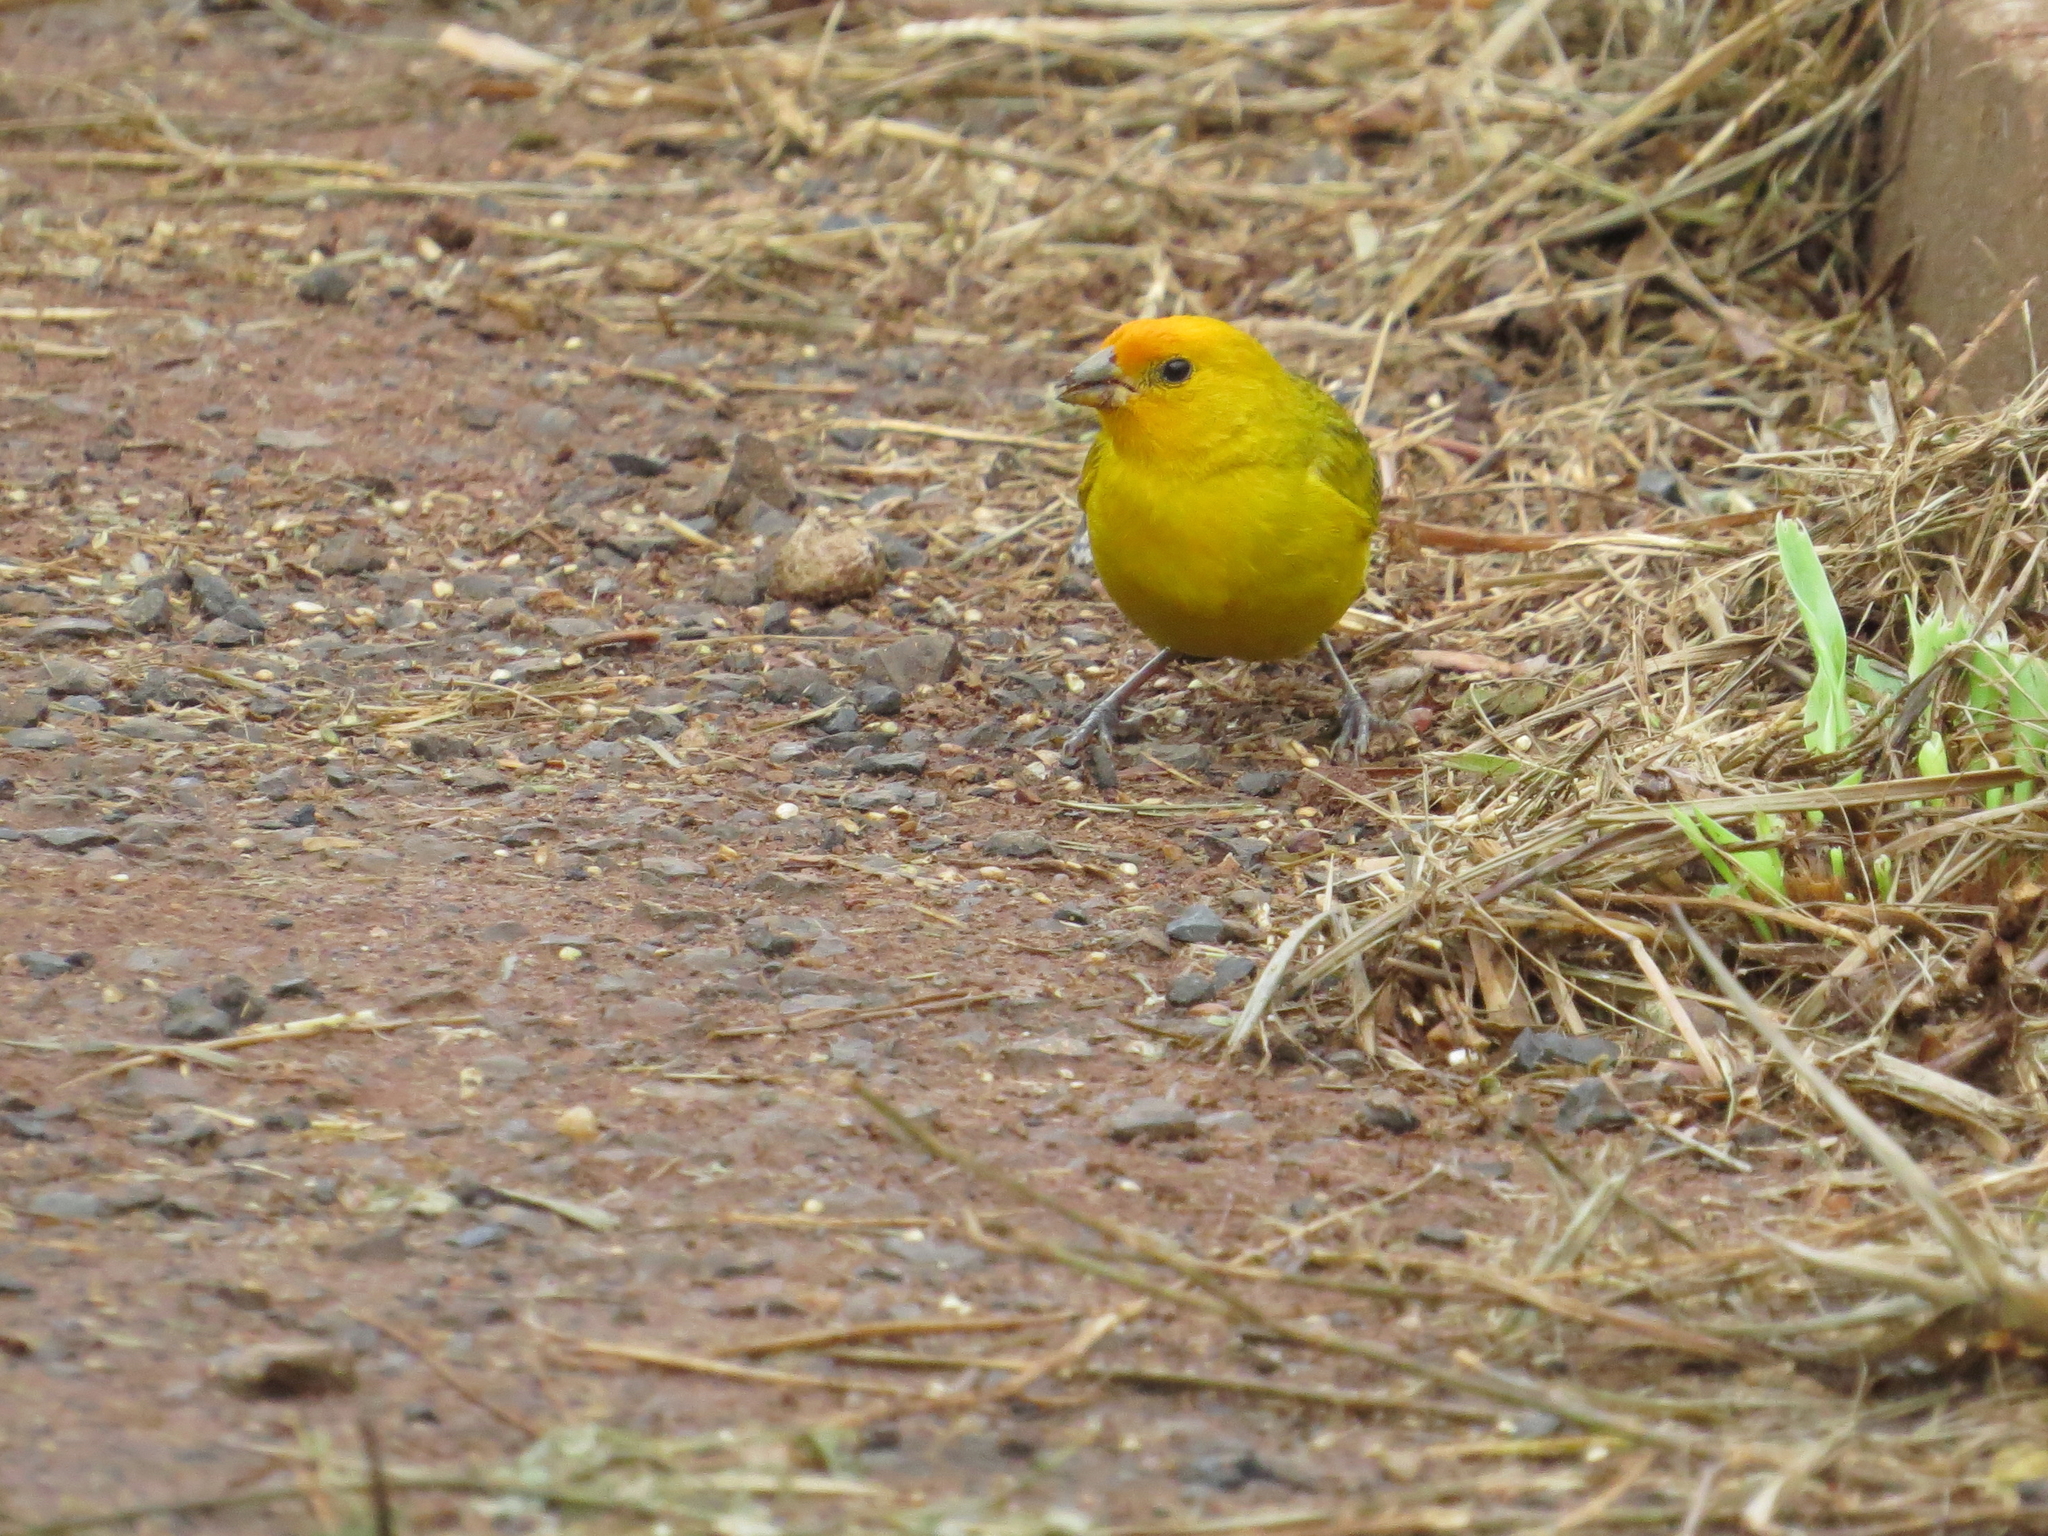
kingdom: Animalia
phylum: Chordata
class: Aves
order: Passeriformes
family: Thraupidae
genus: Sicalis
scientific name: Sicalis flaveola
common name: Saffron finch
